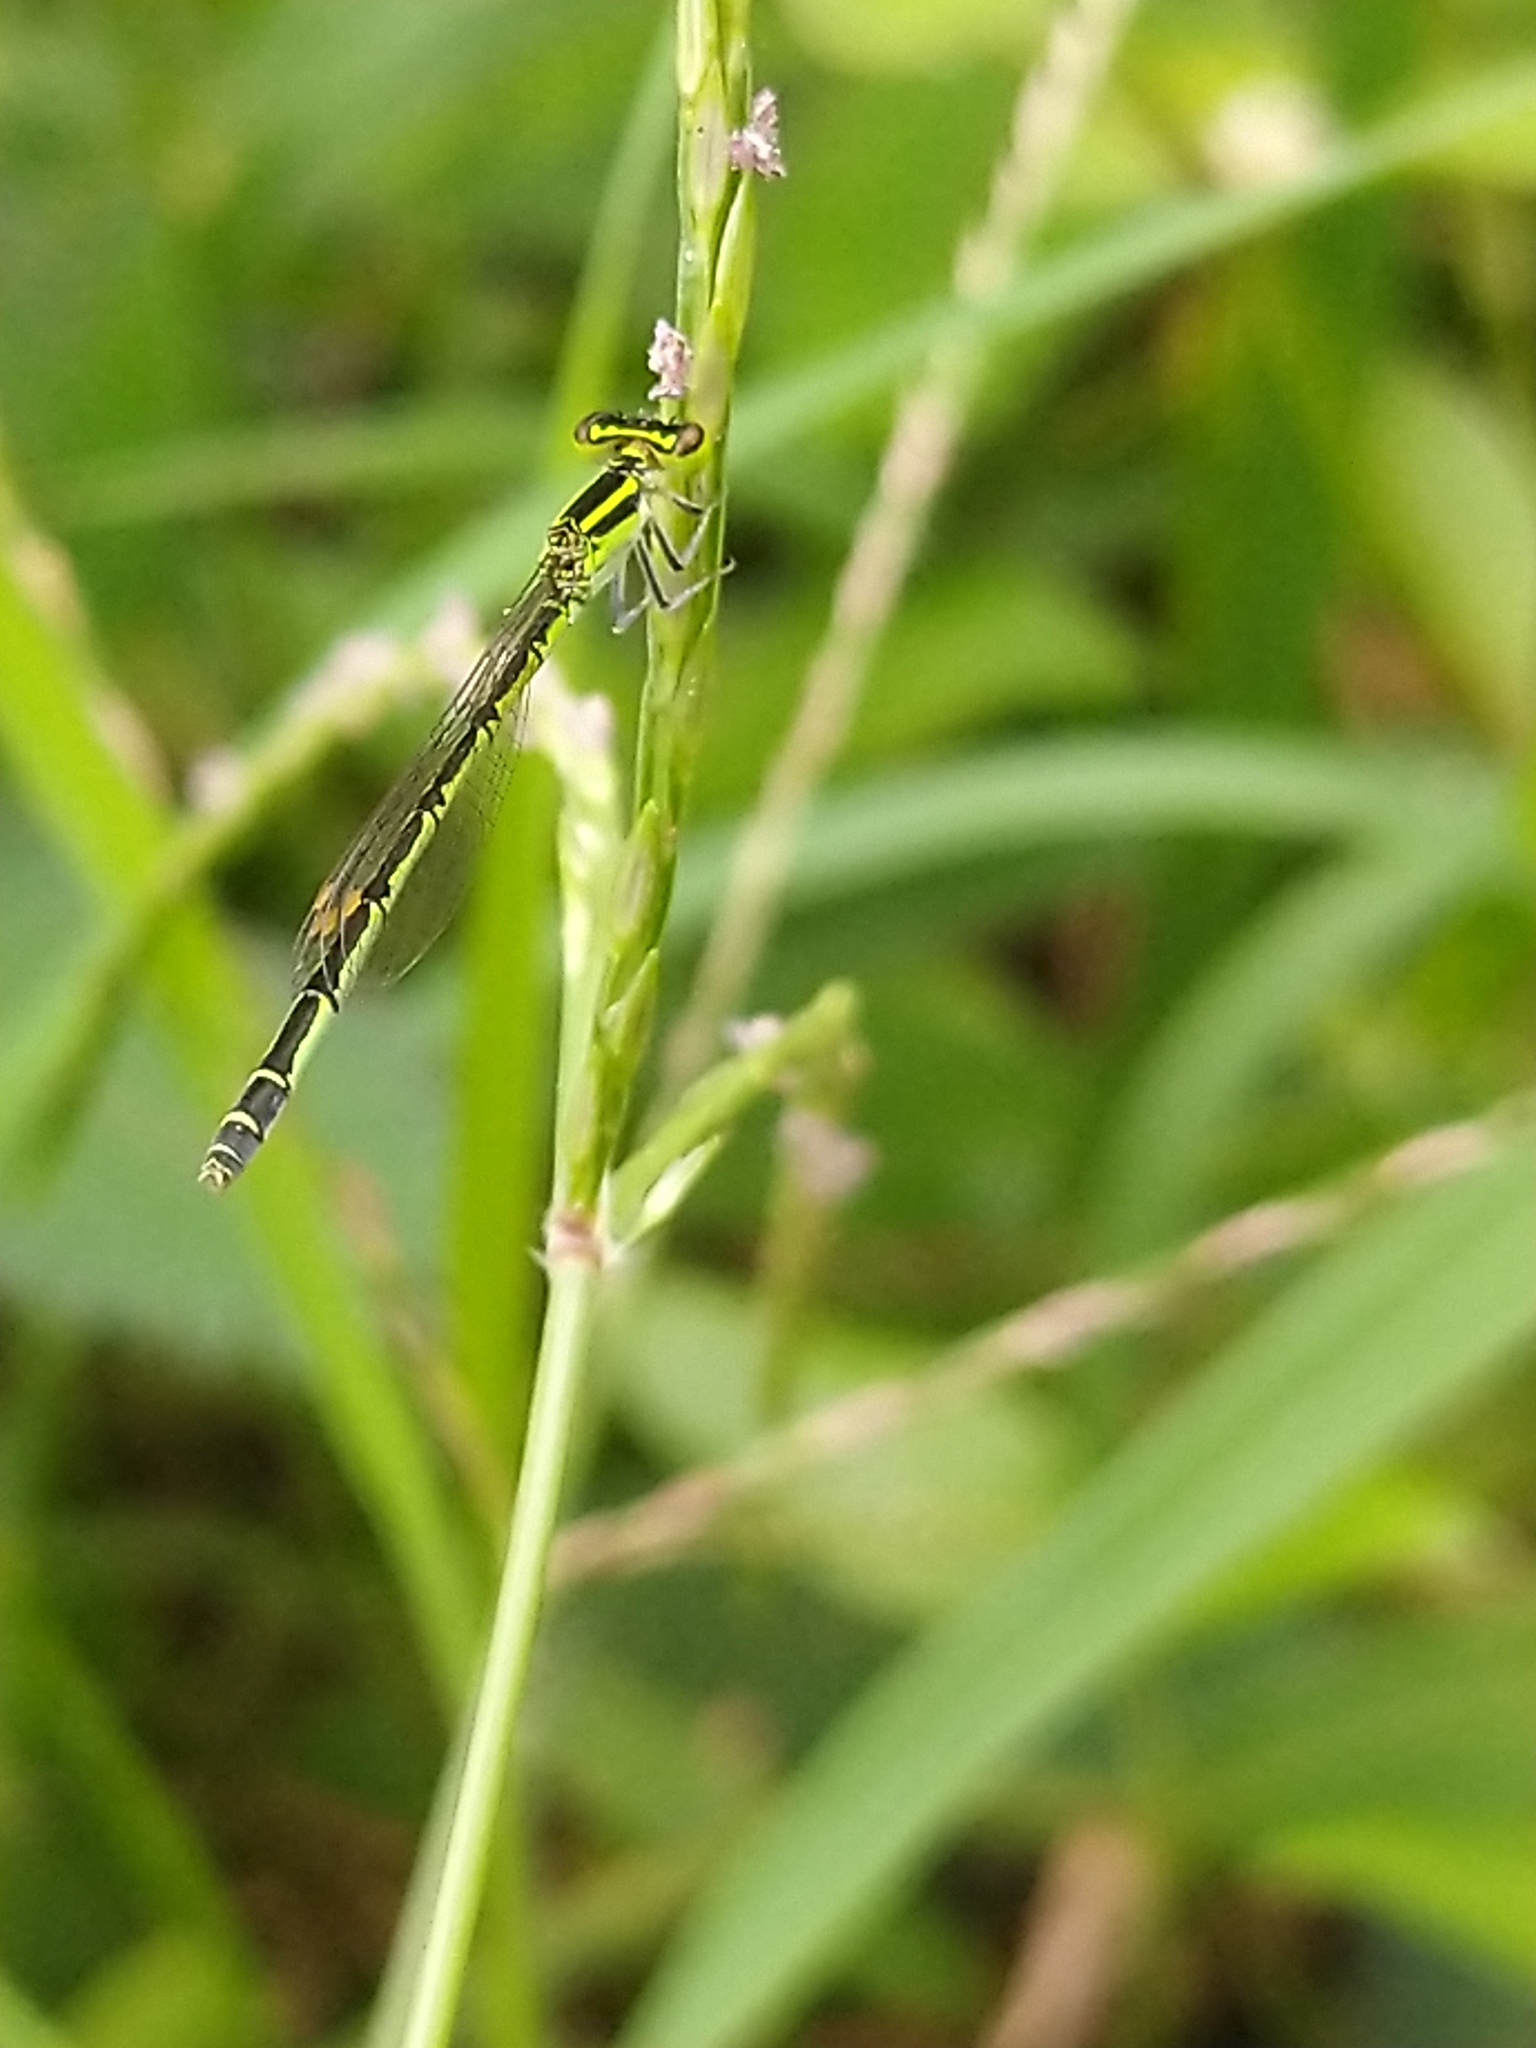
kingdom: Animalia
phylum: Arthropoda
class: Insecta
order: Odonata
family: Coenagrionidae
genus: Agriocnemis
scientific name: Agriocnemis keralensis
